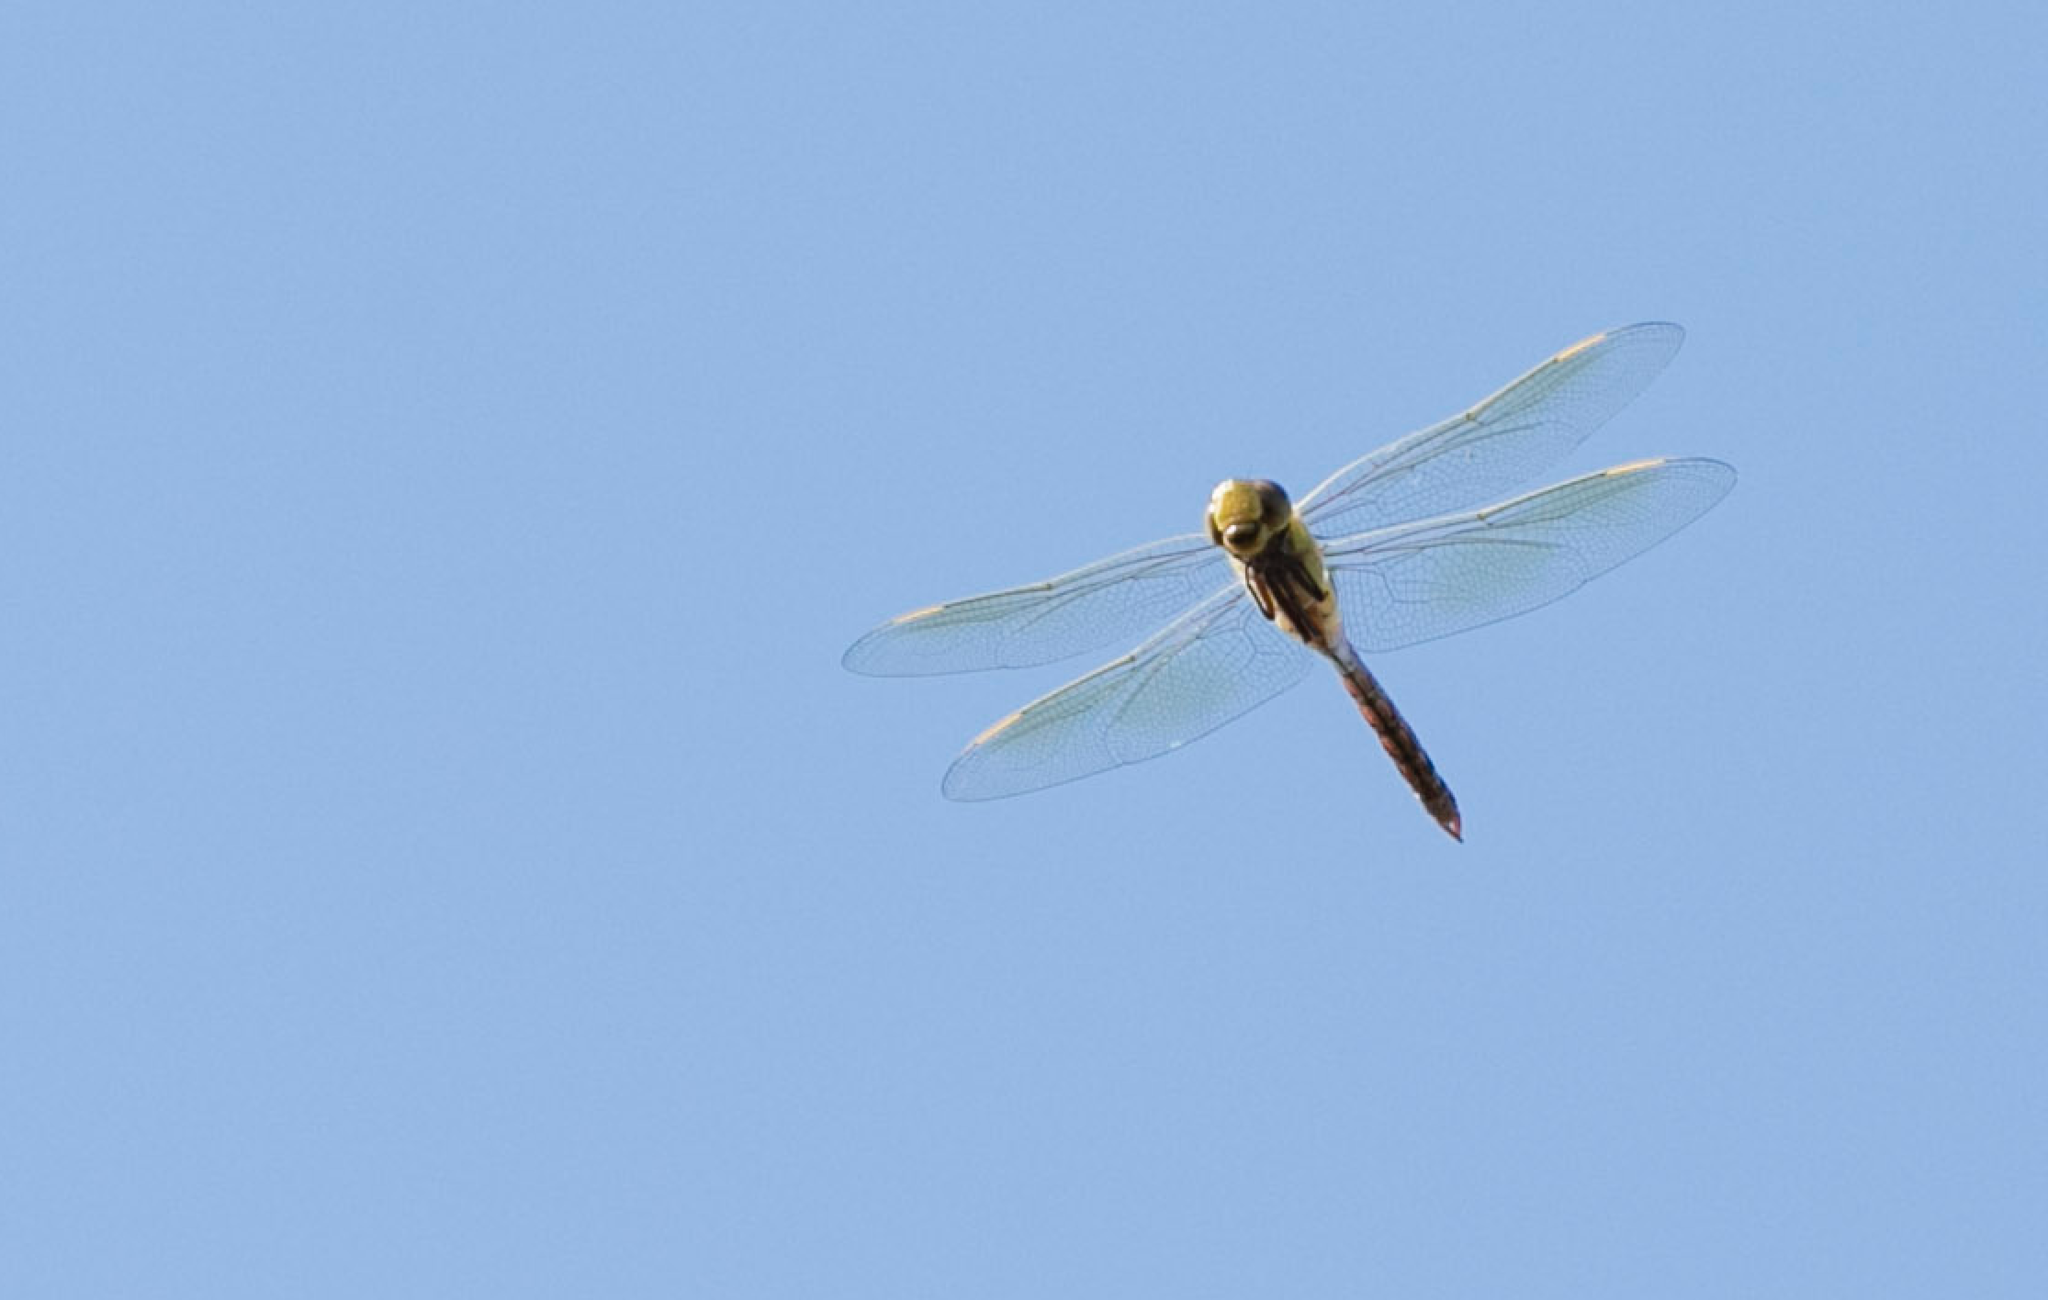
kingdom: Animalia
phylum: Arthropoda
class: Insecta
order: Odonata
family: Aeshnidae
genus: Anax
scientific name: Anax junius
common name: Common green darner
